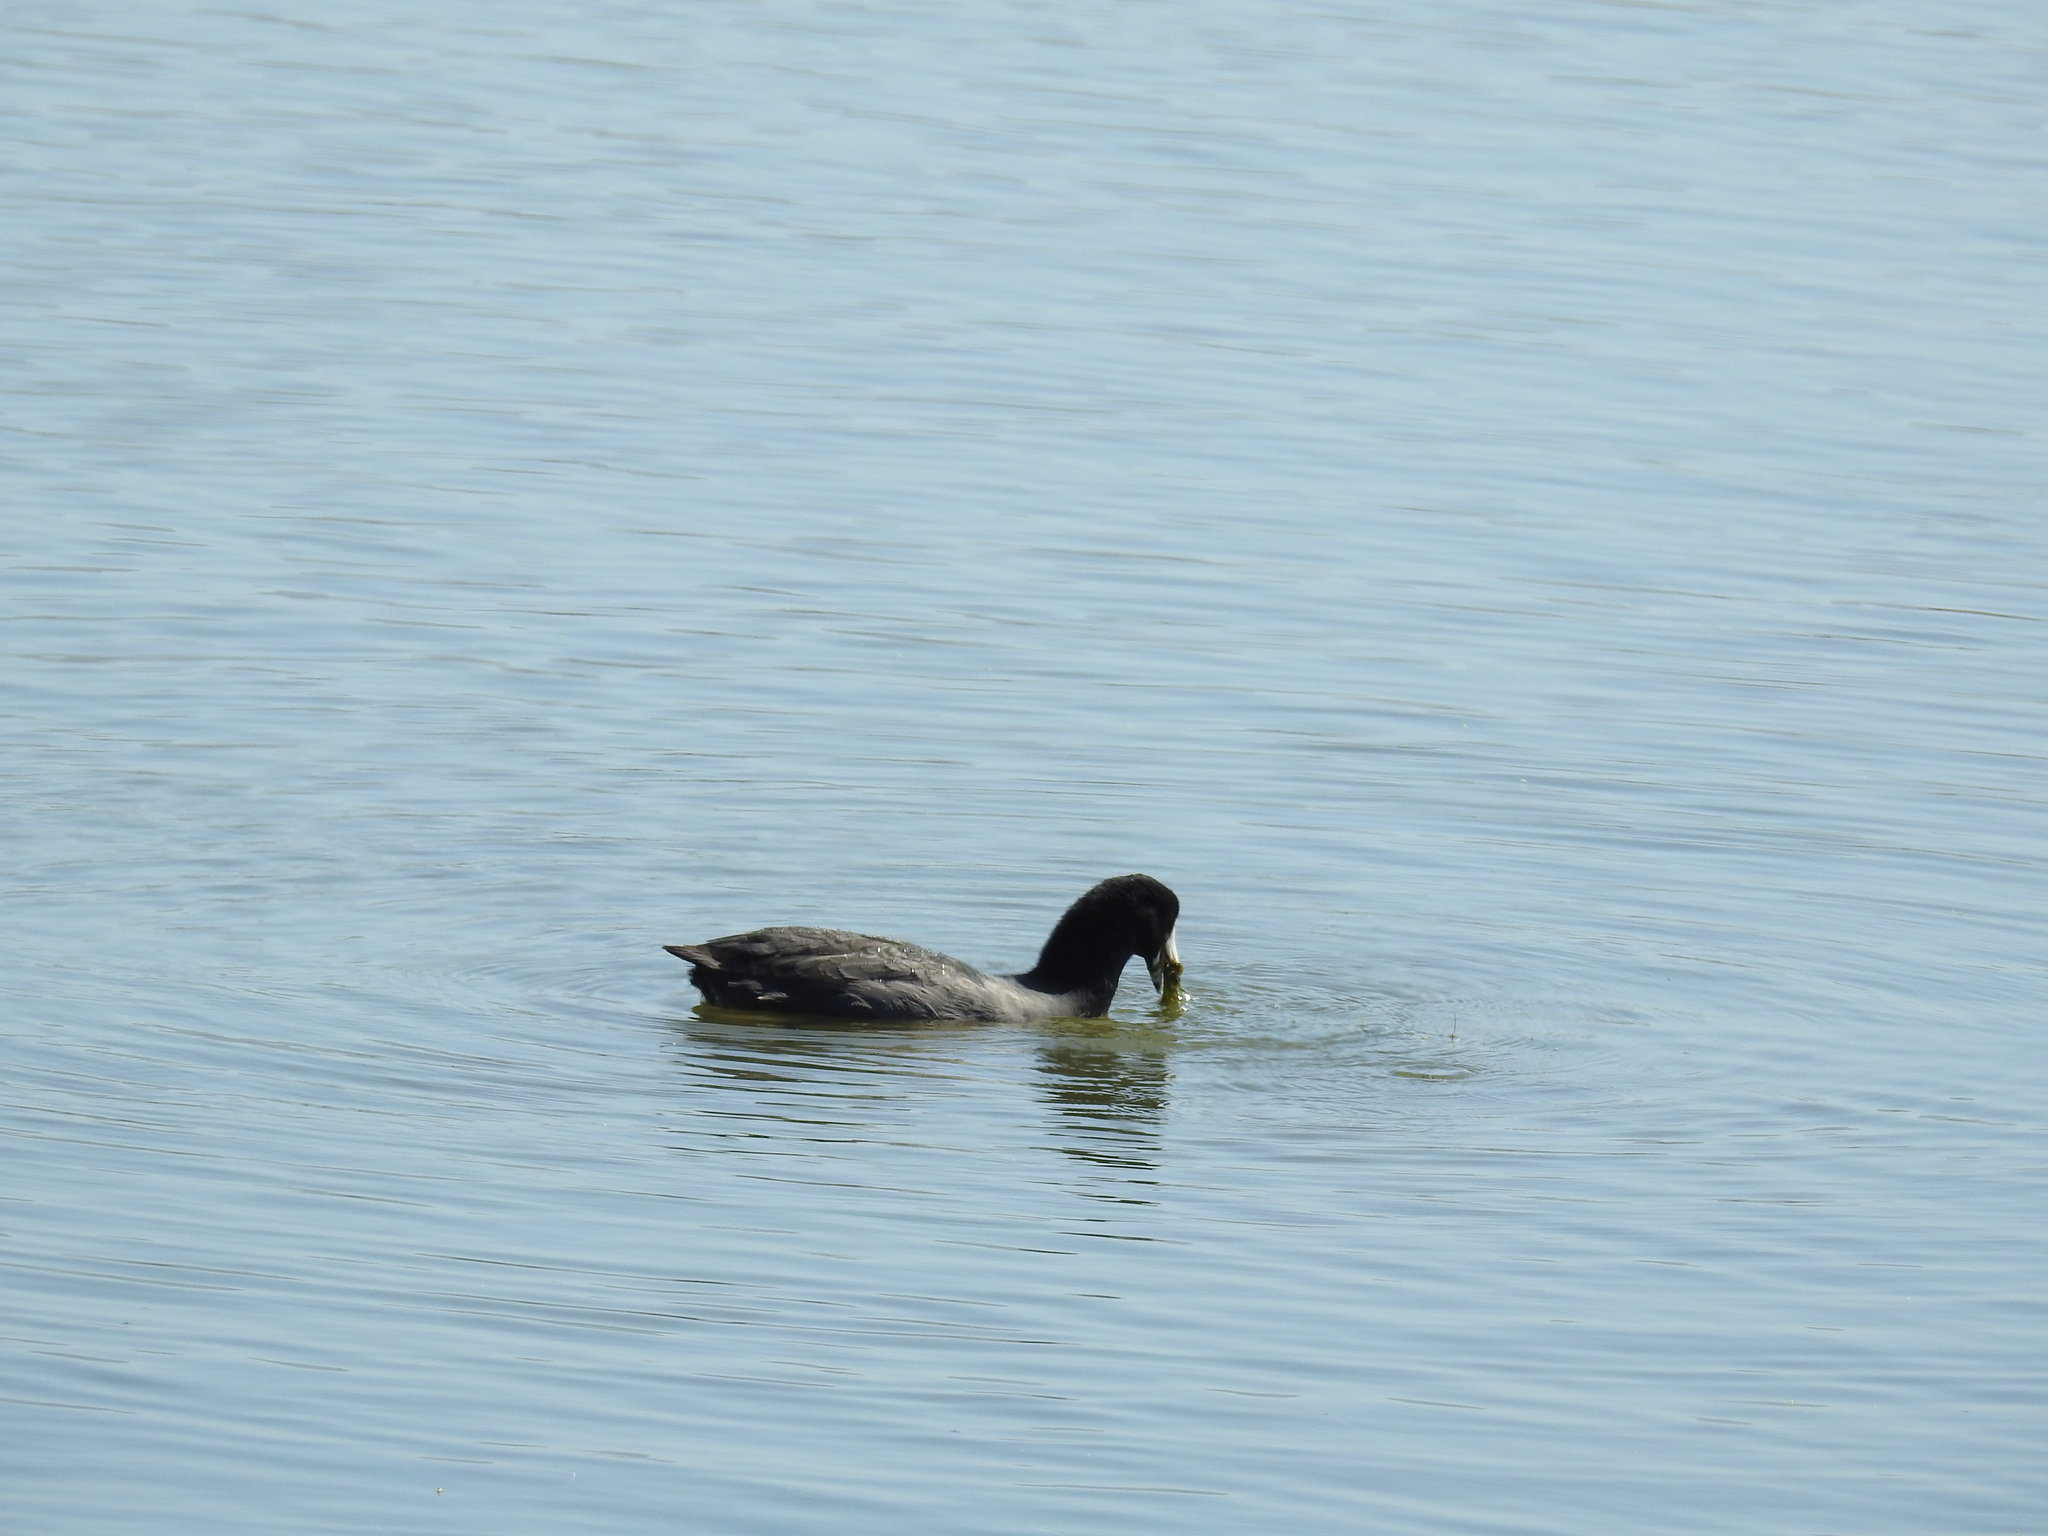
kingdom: Animalia
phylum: Chordata
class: Aves
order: Gruiformes
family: Rallidae
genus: Fulica
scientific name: Fulica americana
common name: American coot
